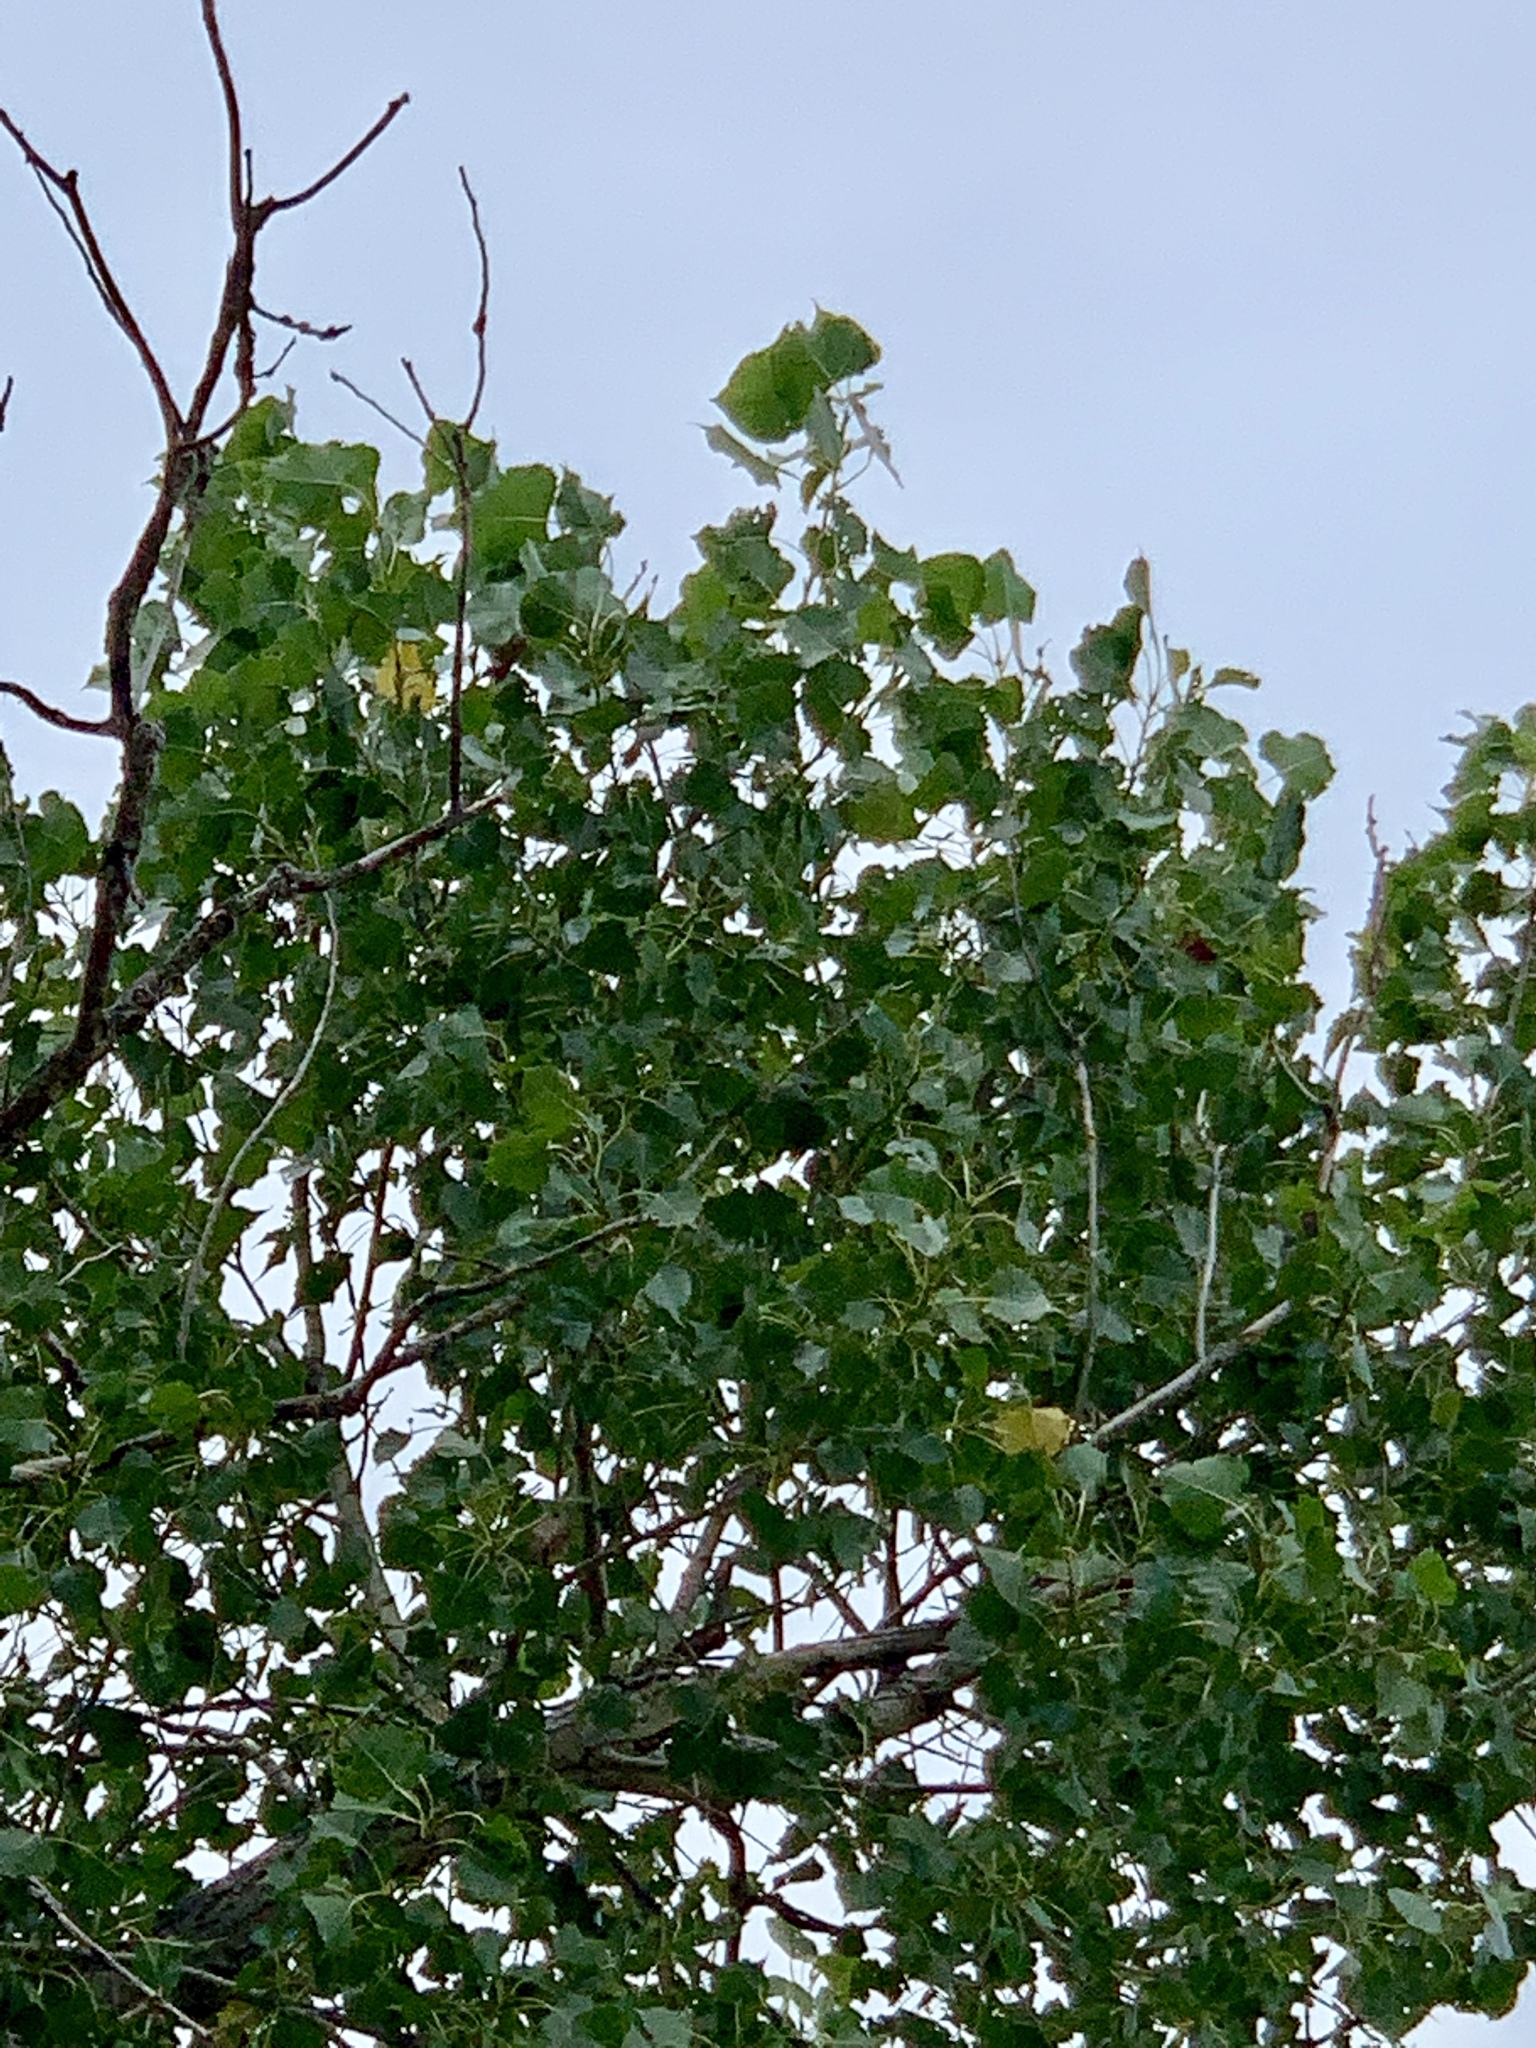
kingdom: Plantae
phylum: Tracheophyta
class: Magnoliopsida
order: Malpighiales
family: Salicaceae
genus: Populus
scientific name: Populus deltoides
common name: Eastern cottonwood
